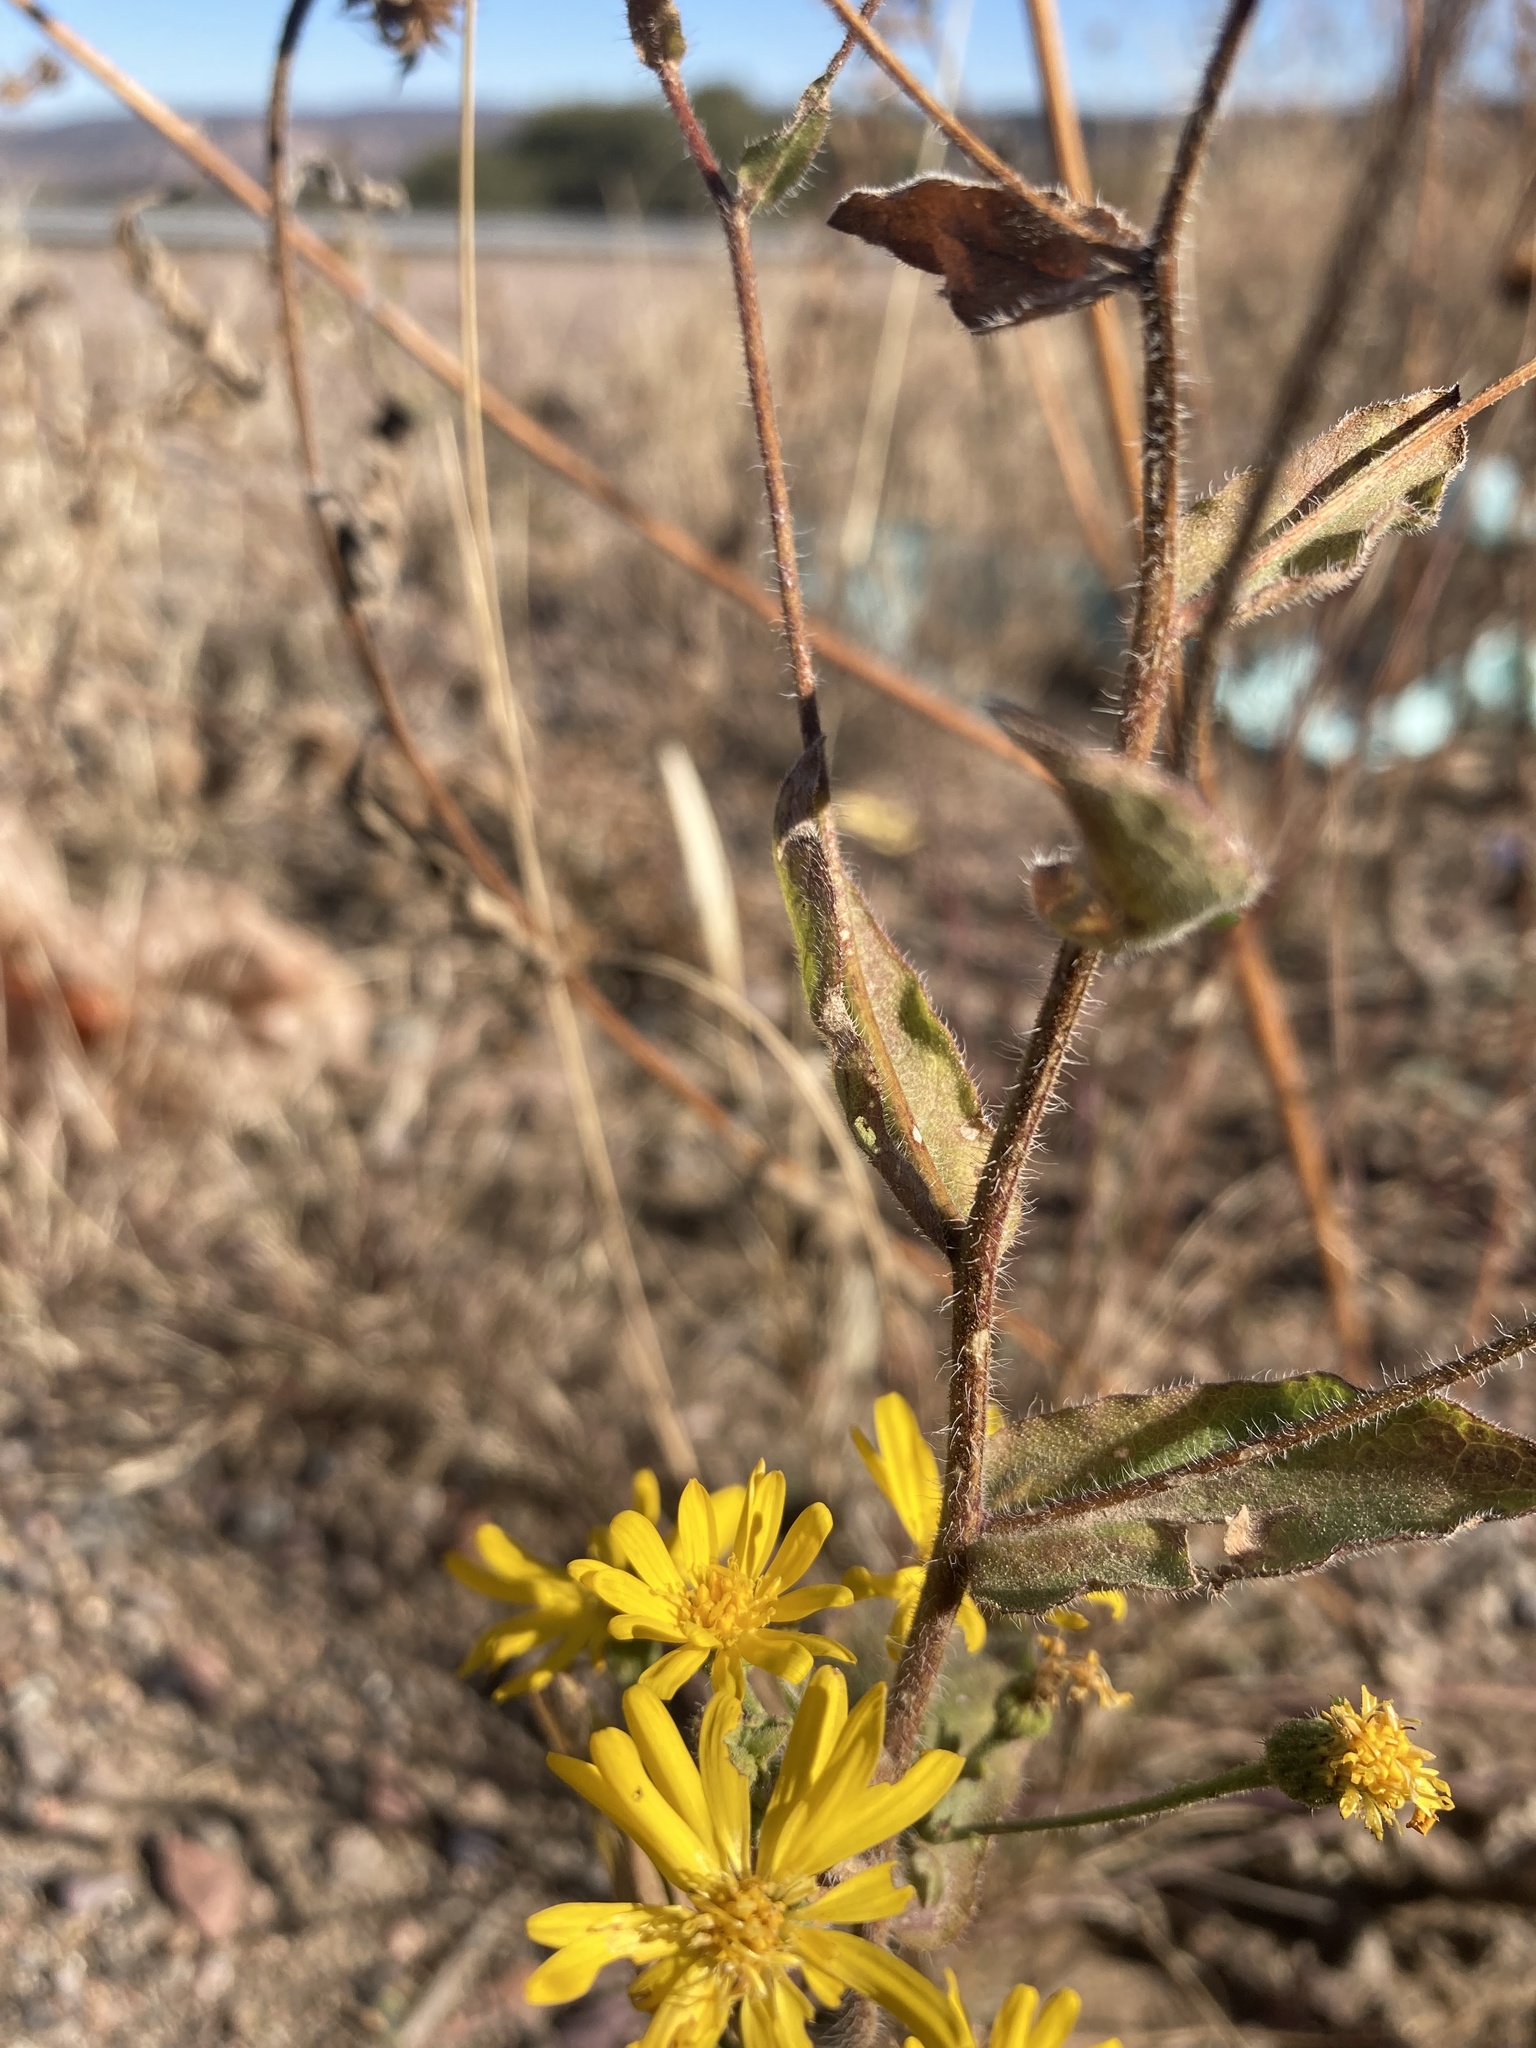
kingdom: Plantae
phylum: Tracheophyta
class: Magnoliopsida
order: Asterales
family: Asteraceae
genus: Heterotheca
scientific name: Heterotheca subaxillaris
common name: Camphorweed
